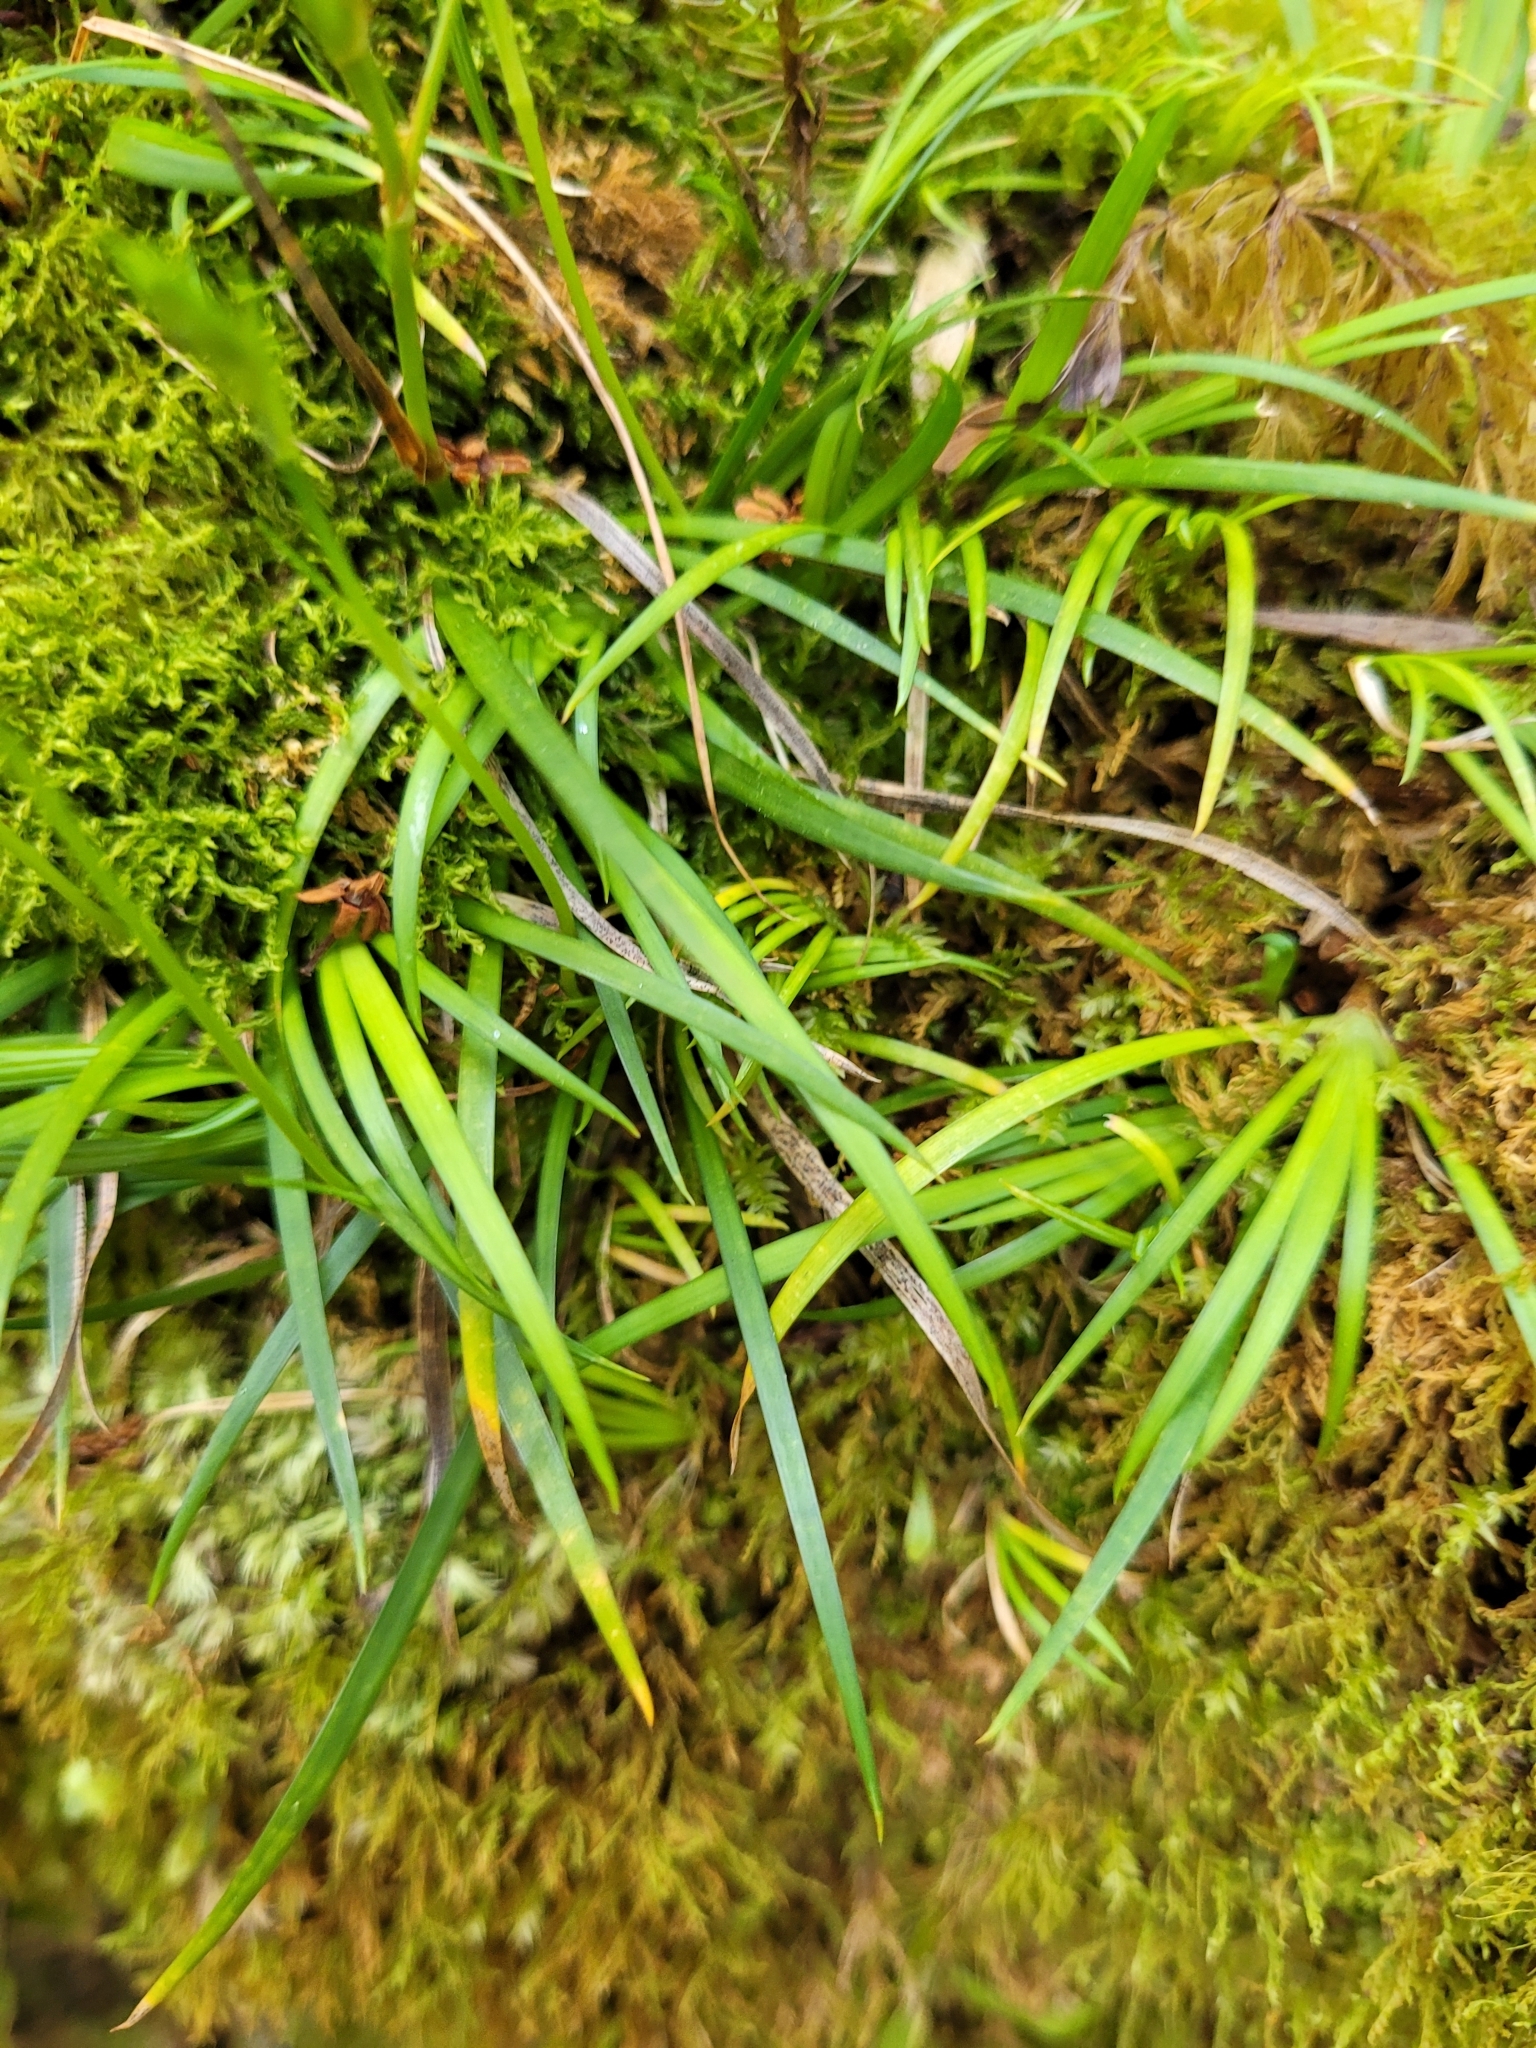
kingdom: Plantae
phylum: Tracheophyta
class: Liliopsida
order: Asparagales
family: Iridaceae
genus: Libertia
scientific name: Libertia micrantha
